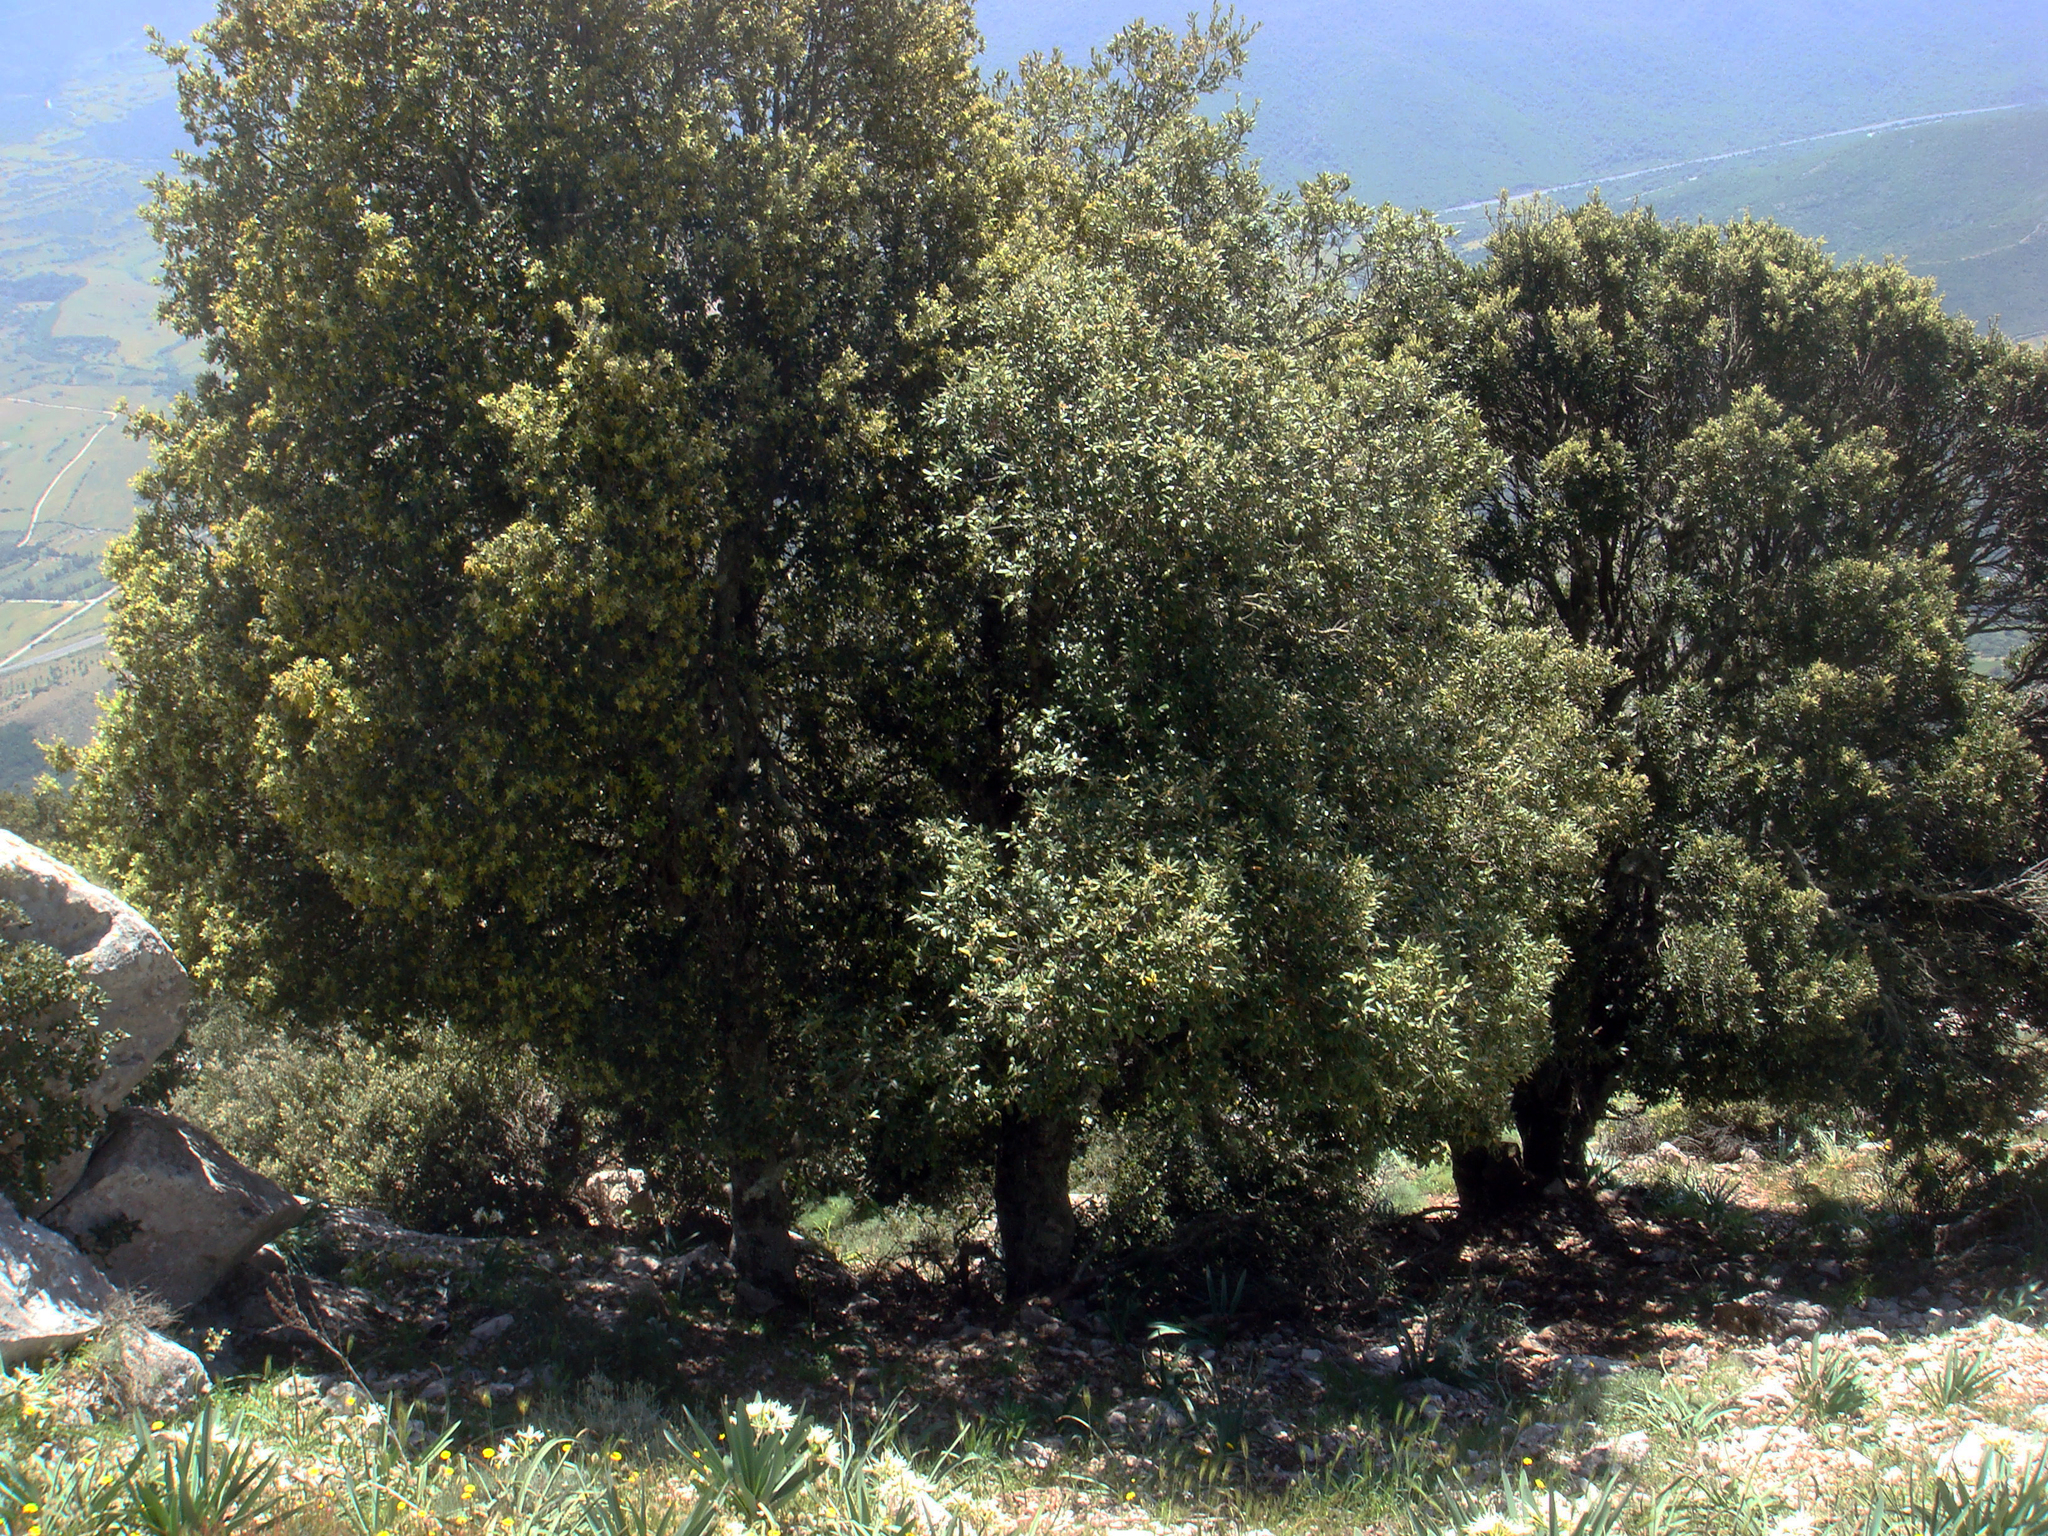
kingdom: Plantae
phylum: Tracheophyta
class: Magnoliopsida
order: Fagales
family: Fagaceae
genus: Quercus
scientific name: Quercus ilex
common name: Evergreen oak
